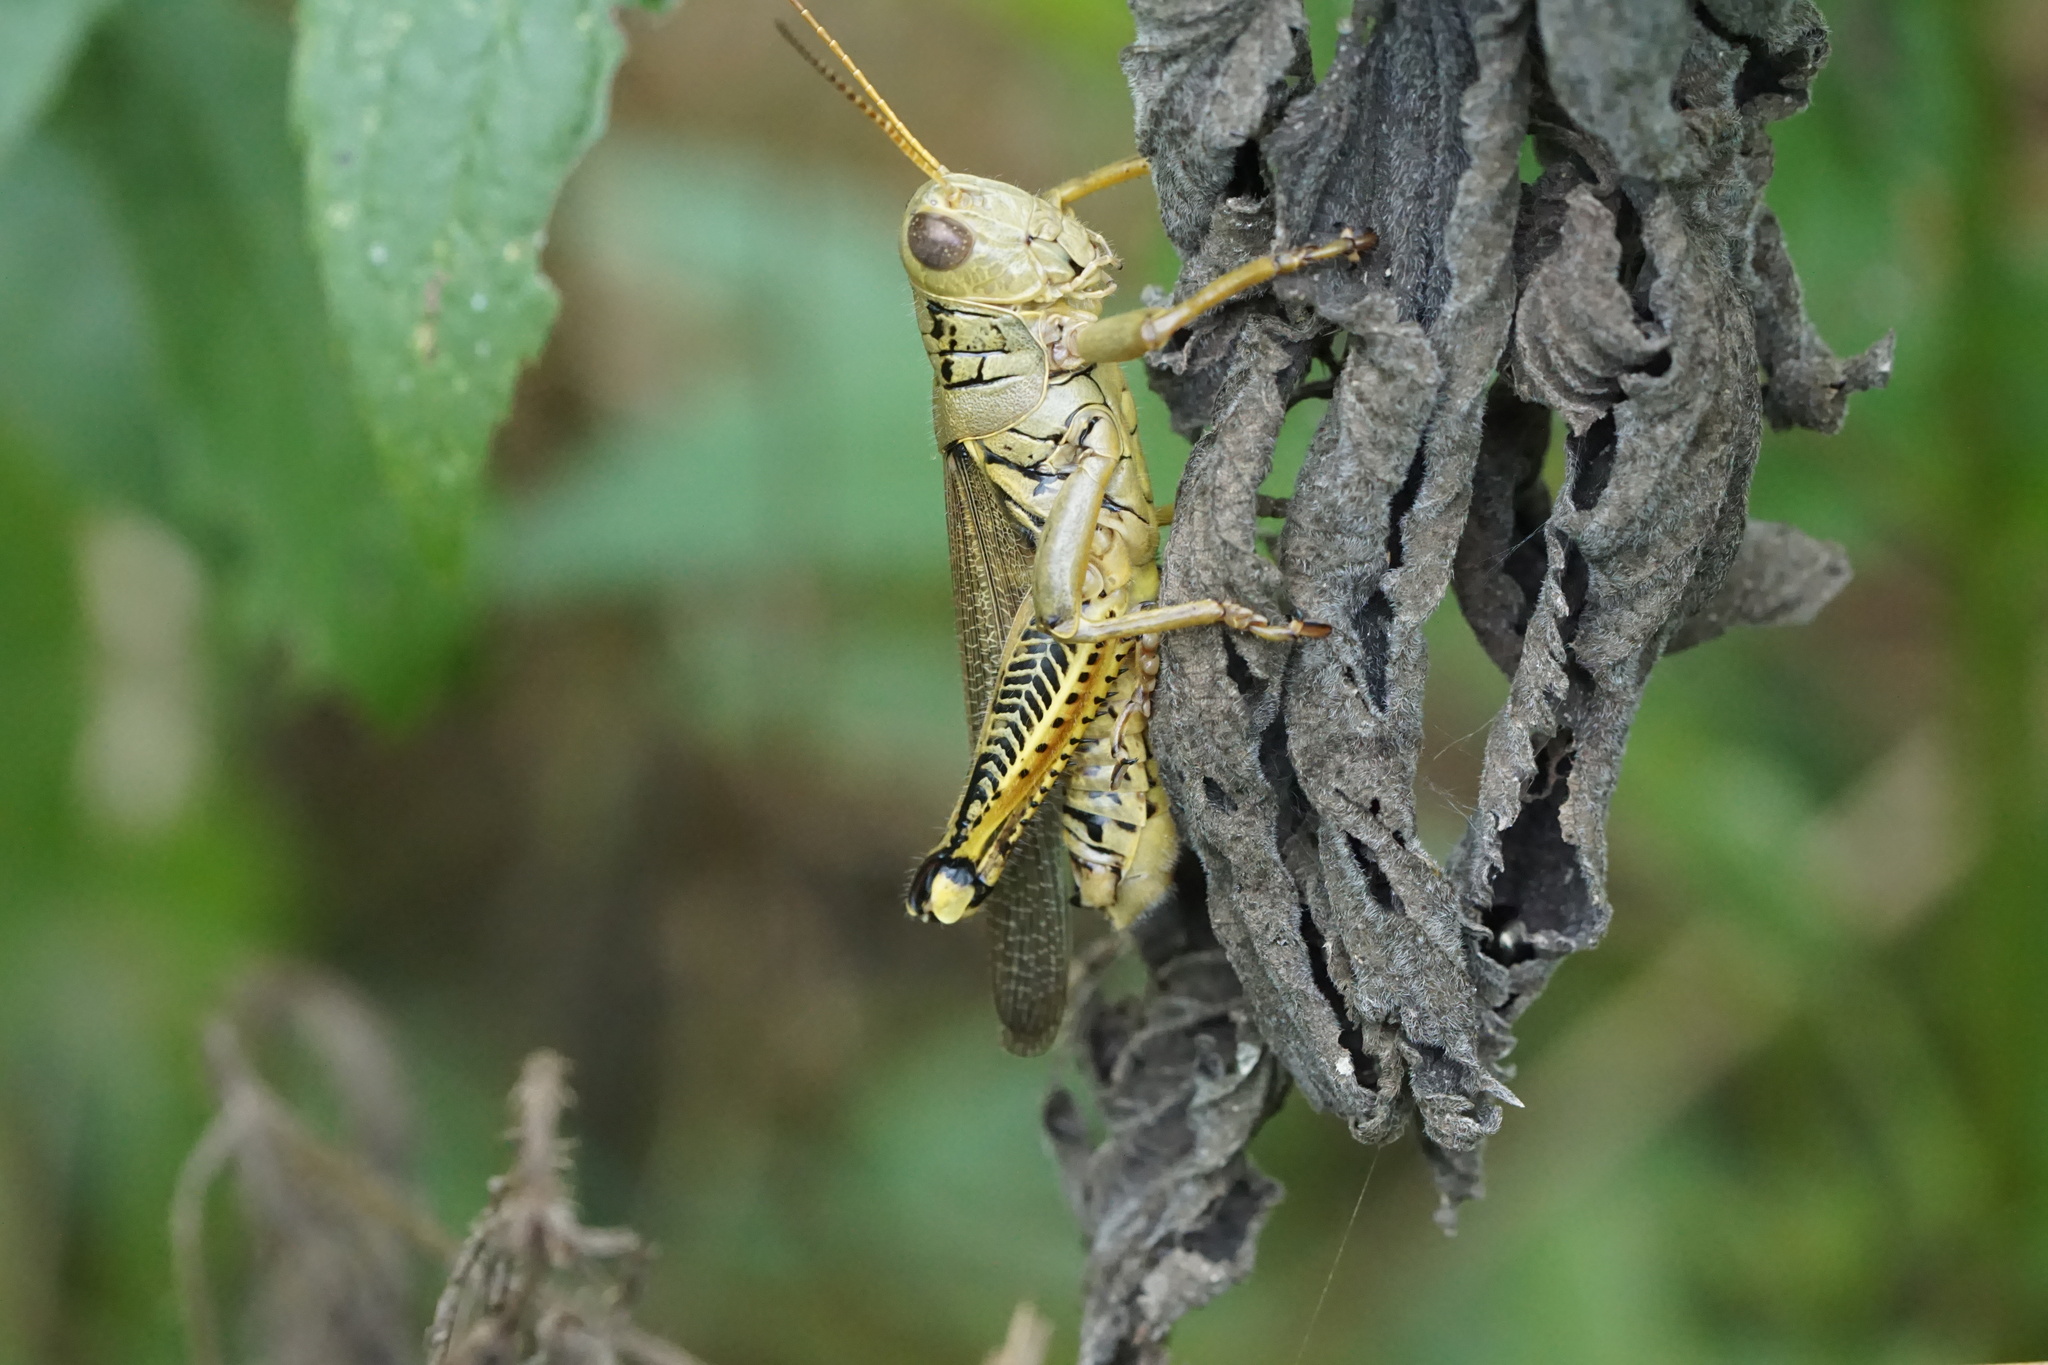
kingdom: Animalia
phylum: Arthropoda
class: Insecta
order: Orthoptera
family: Acrididae
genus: Melanoplus
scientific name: Melanoplus differentialis
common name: Differential grasshopper
